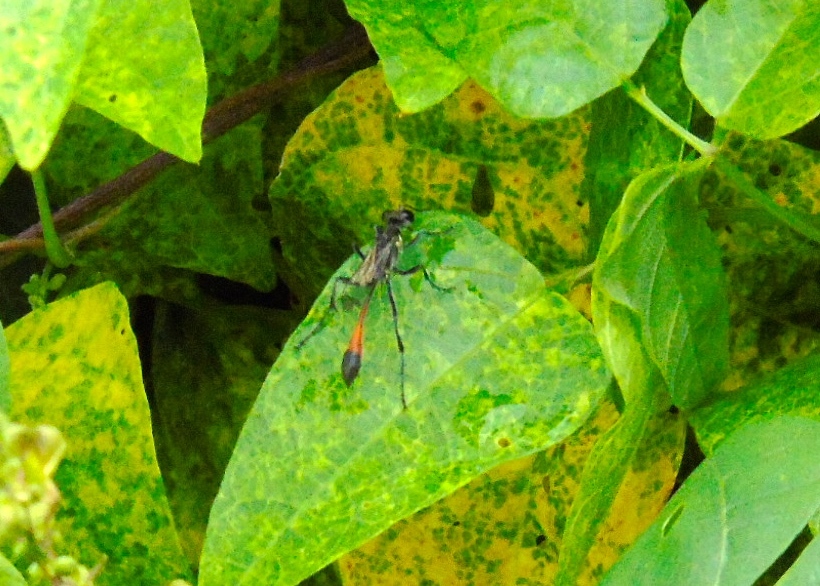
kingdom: Animalia
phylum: Arthropoda
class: Insecta
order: Hymenoptera
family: Sphecidae
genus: Ammophila
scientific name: Ammophila
